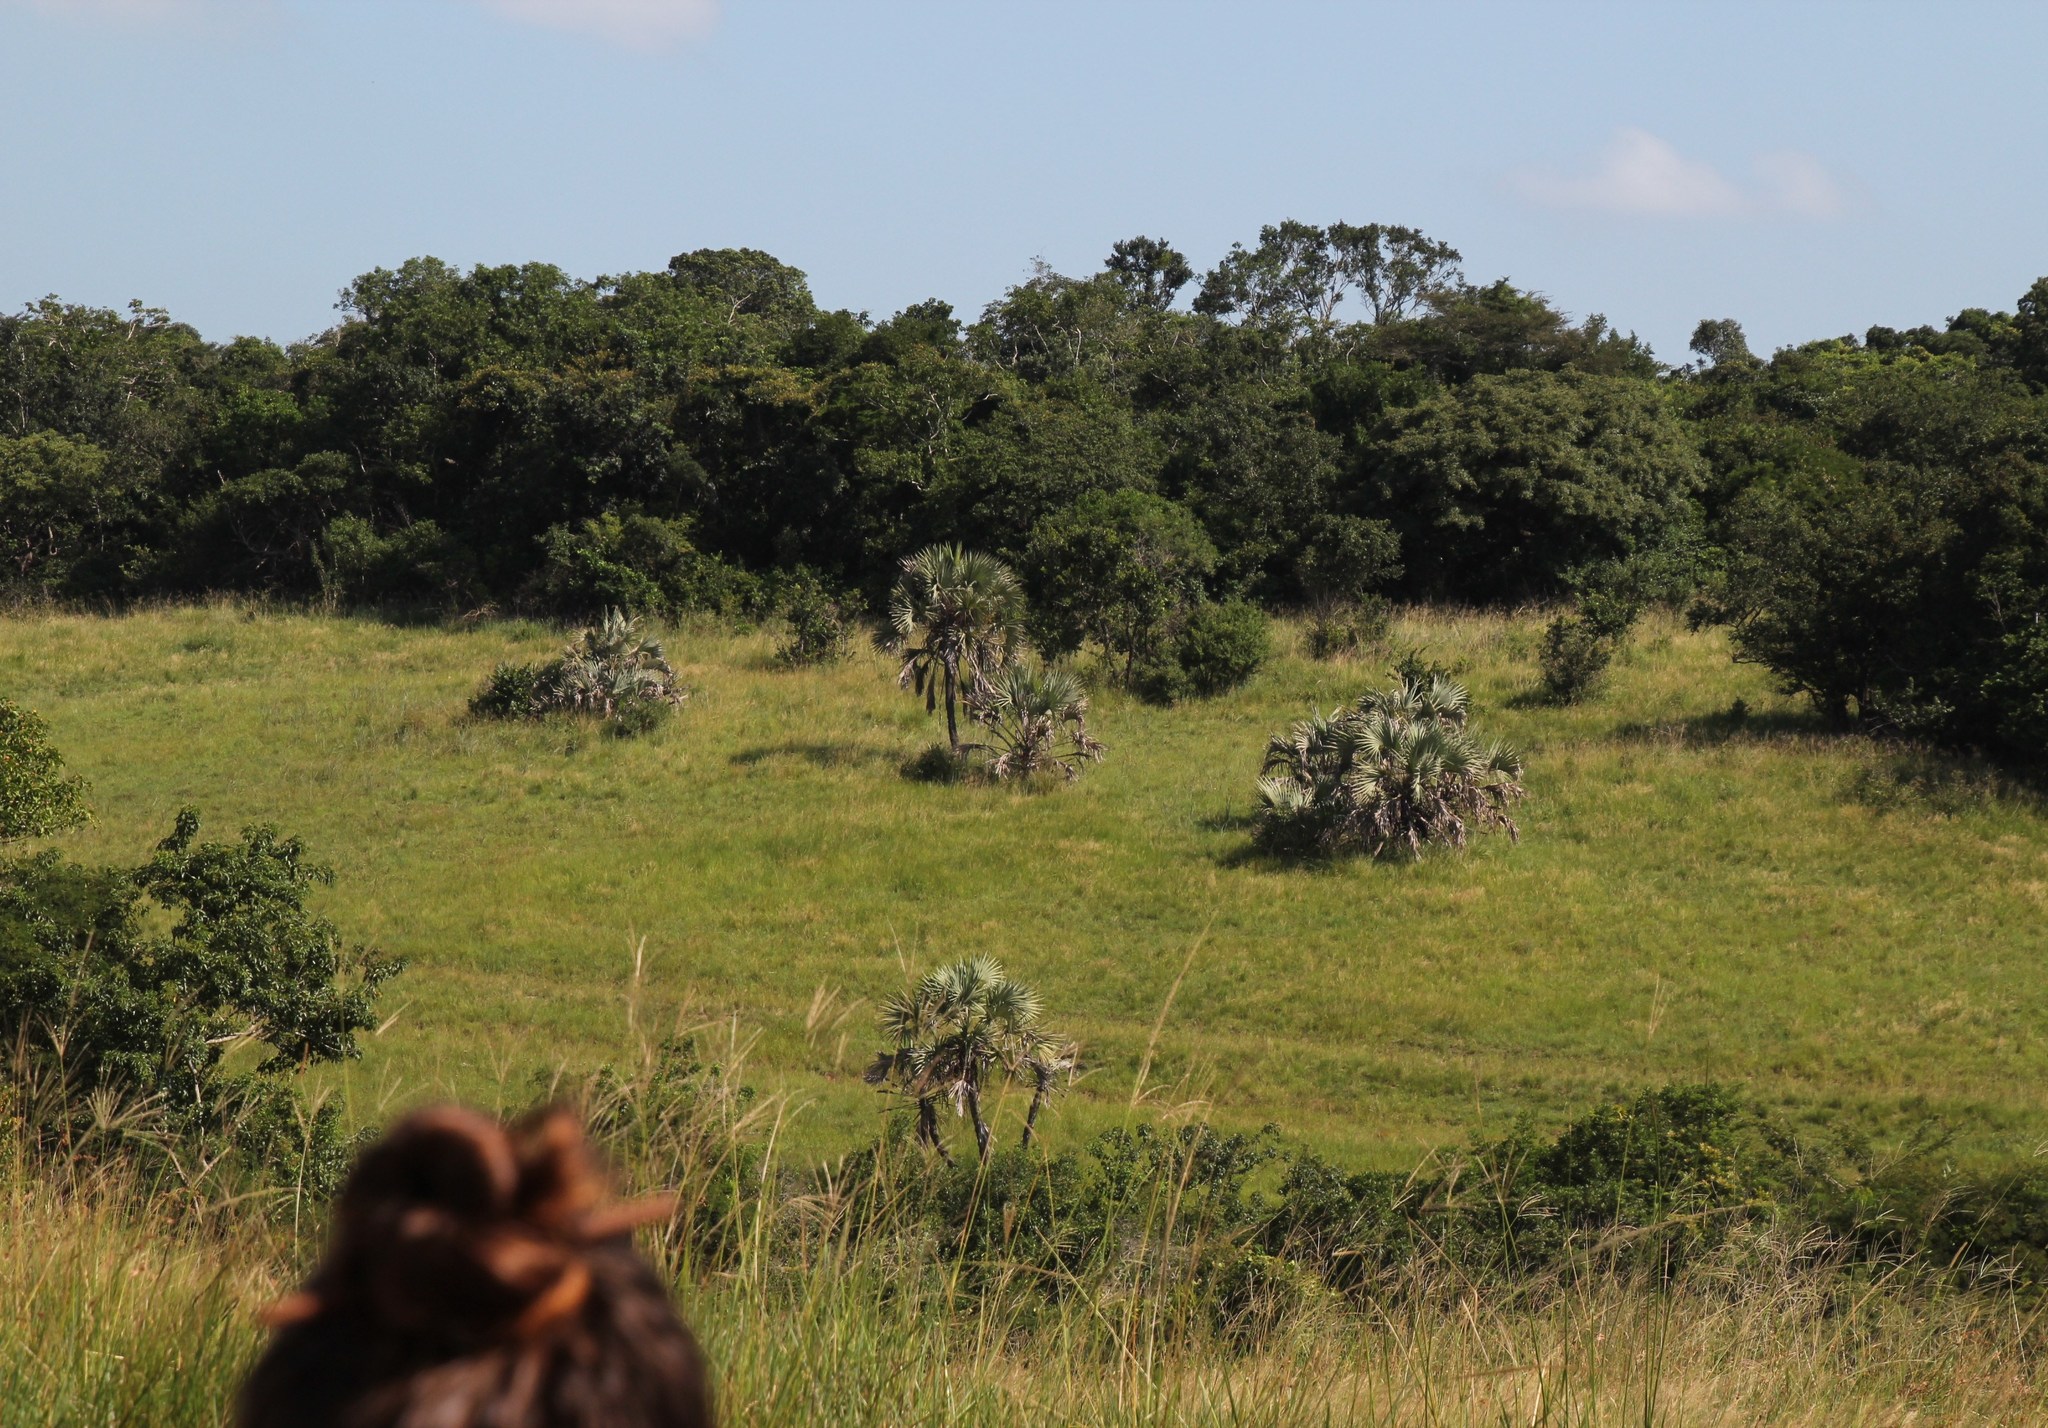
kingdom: Plantae
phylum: Tracheophyta
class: Liliopsida
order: Arecales
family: Arecaceae
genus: Hyphaene
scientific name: Hyphaene coriacea
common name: Ilala palm
